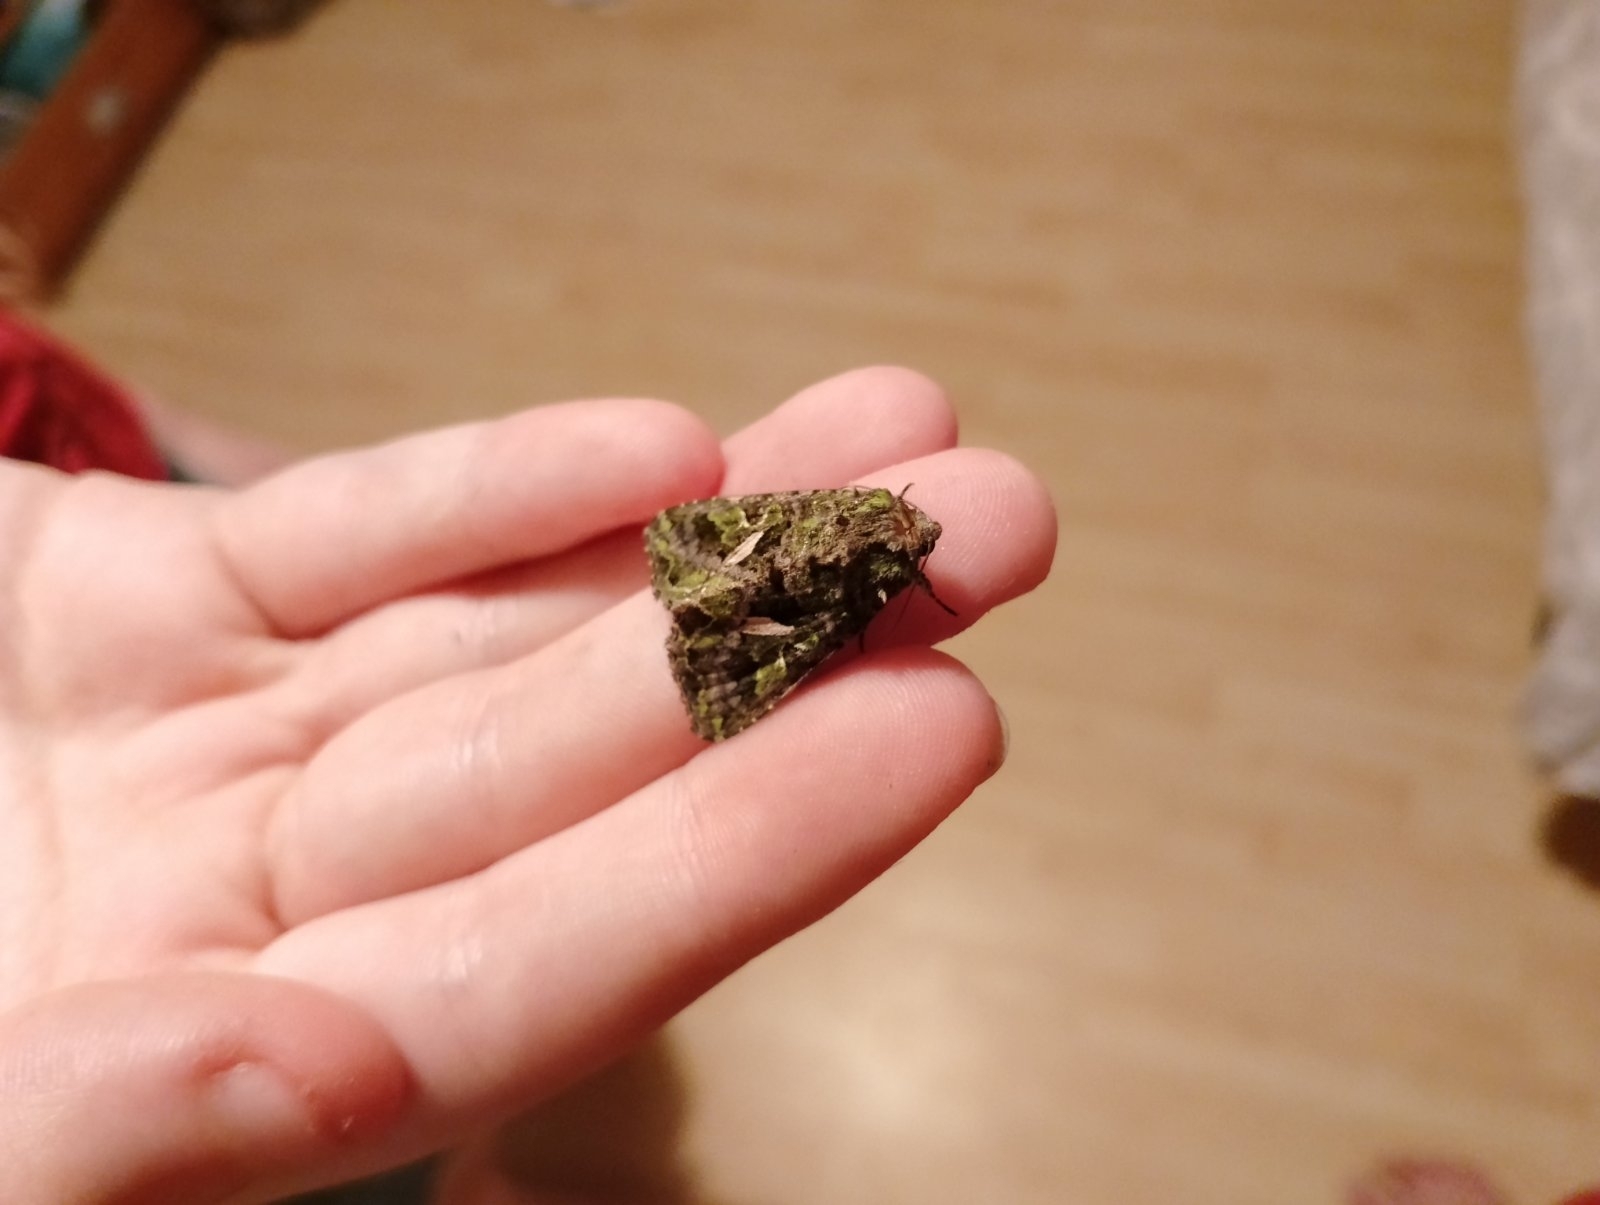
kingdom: Animalia
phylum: Arthropoda
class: Insecta
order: Lepidoptera
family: Noctuidae
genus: Trachea
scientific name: Trachea atriplicis
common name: Orache moth
